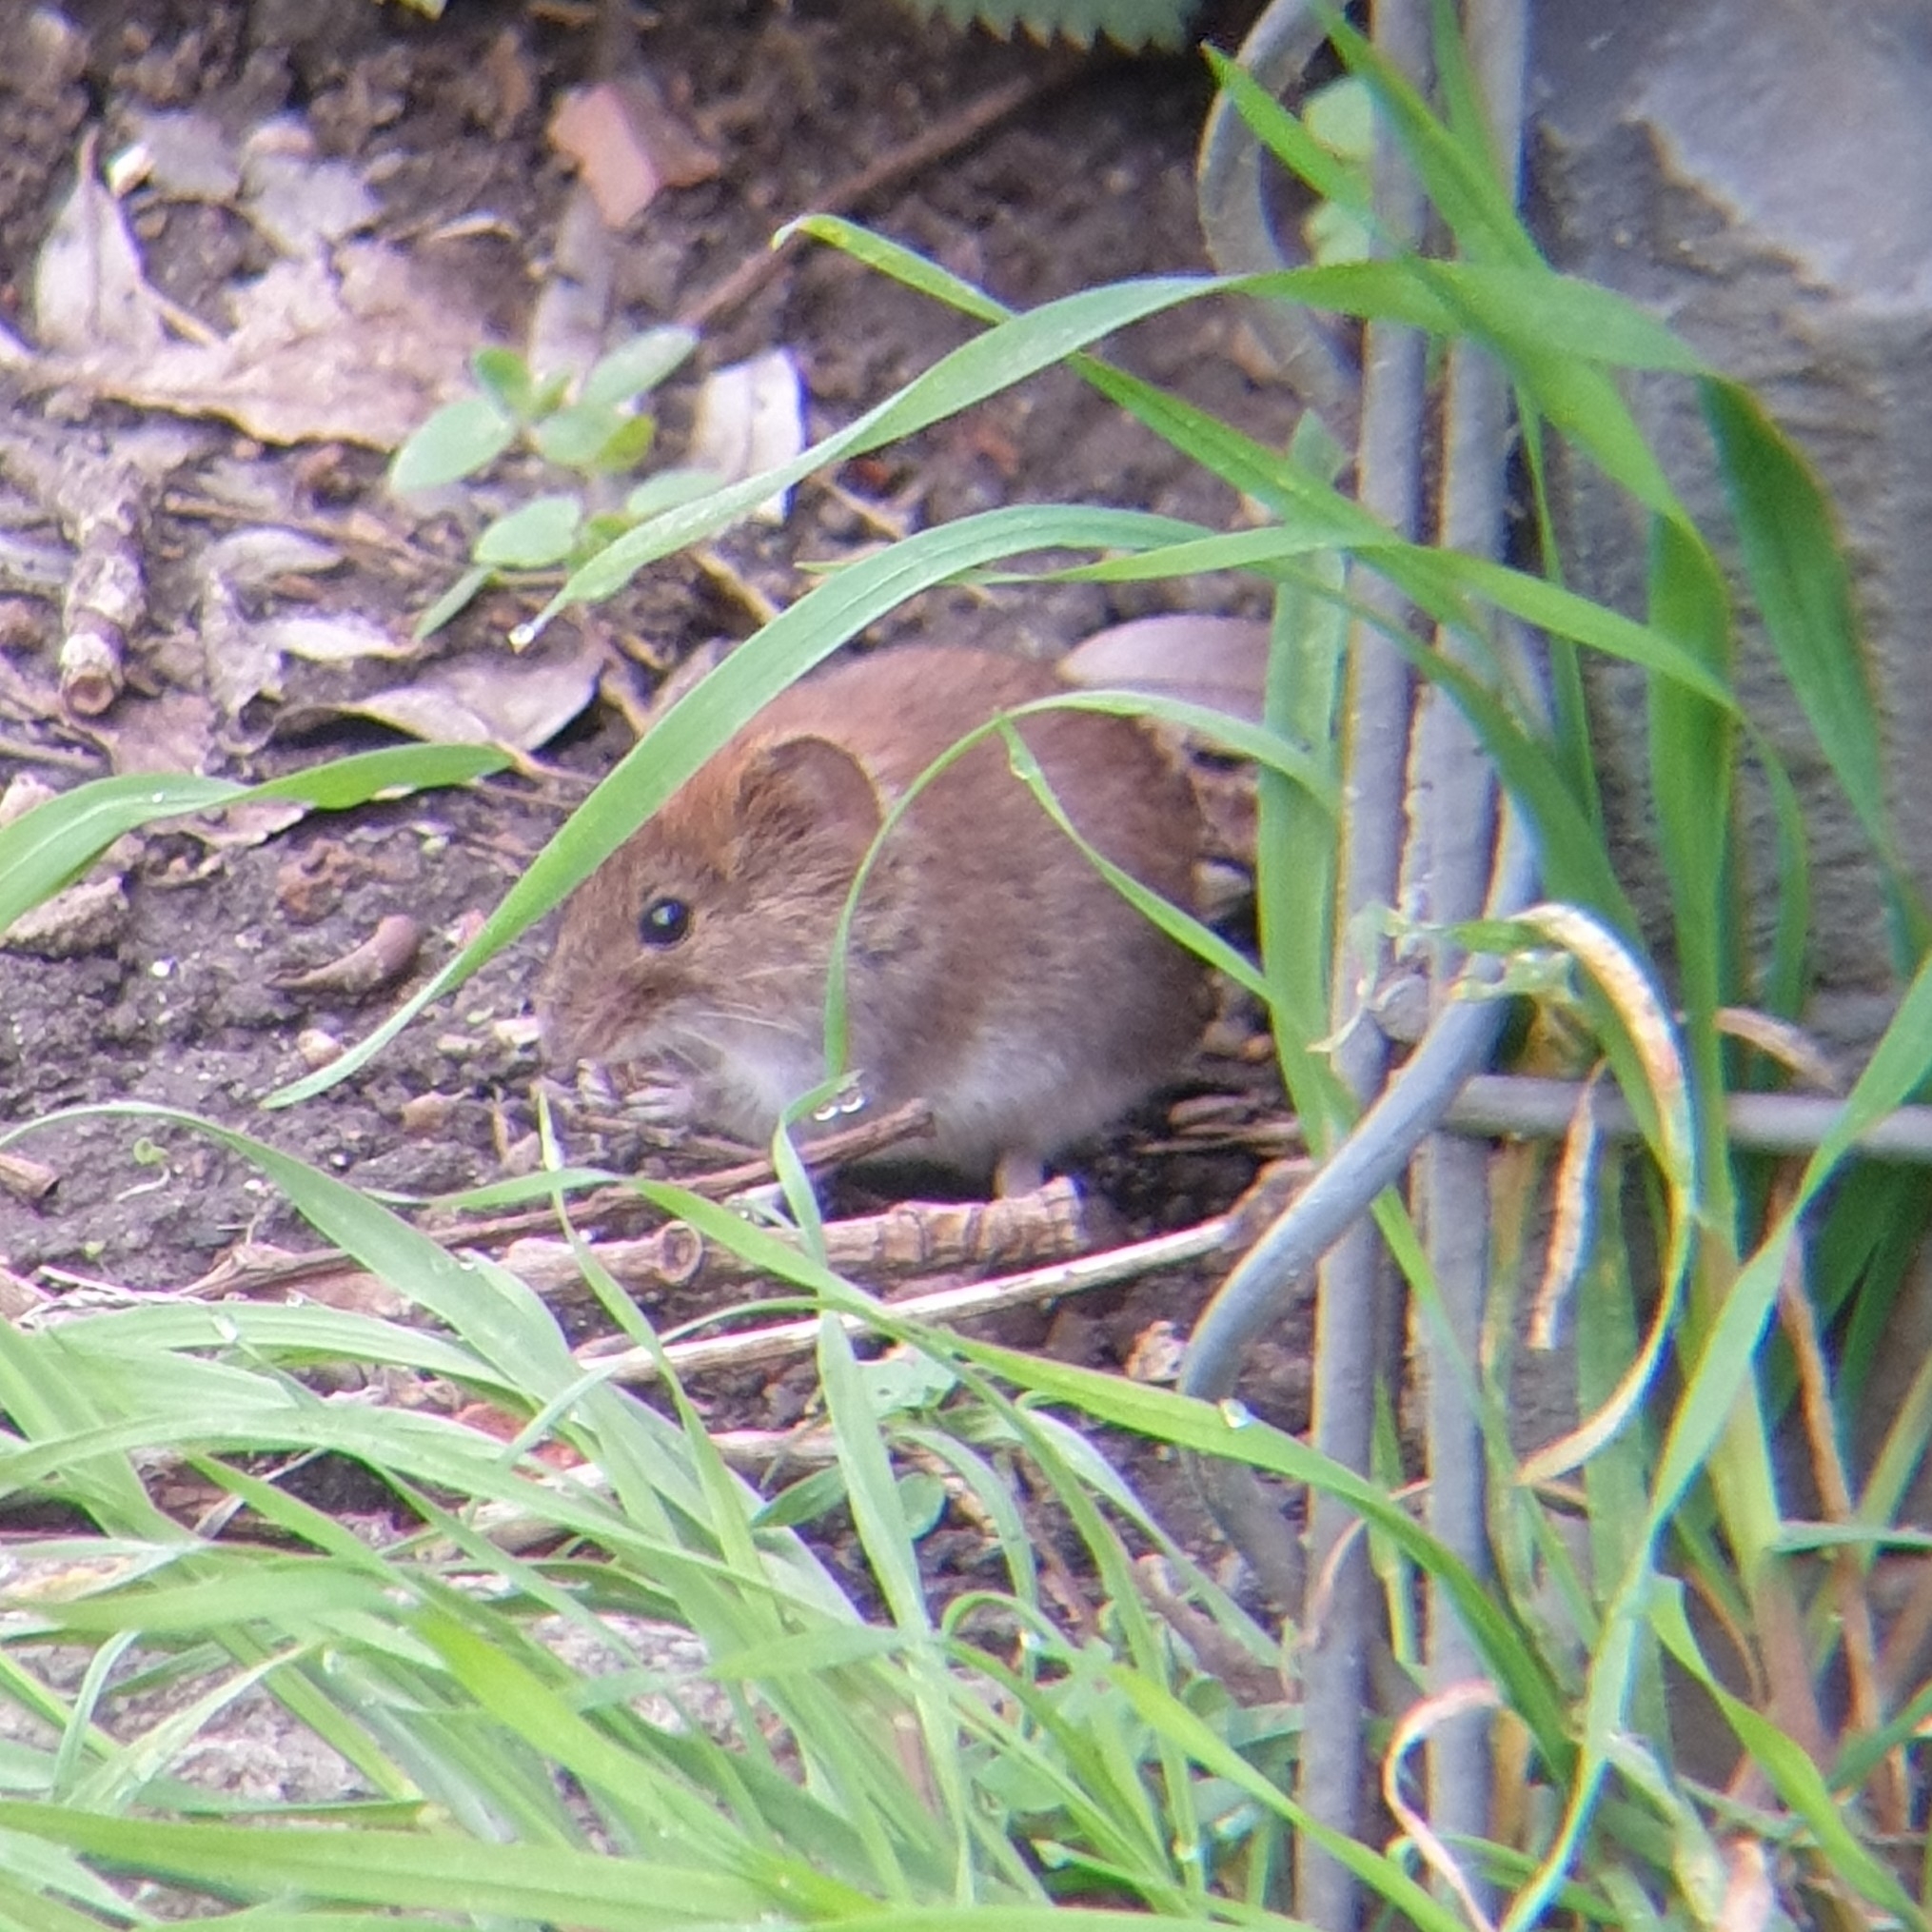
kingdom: Animalia
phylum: Chordata
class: Mammalia
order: Rodentia
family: Cricetidae
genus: Myodes
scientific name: Myodes glareolus
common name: Bank vole
